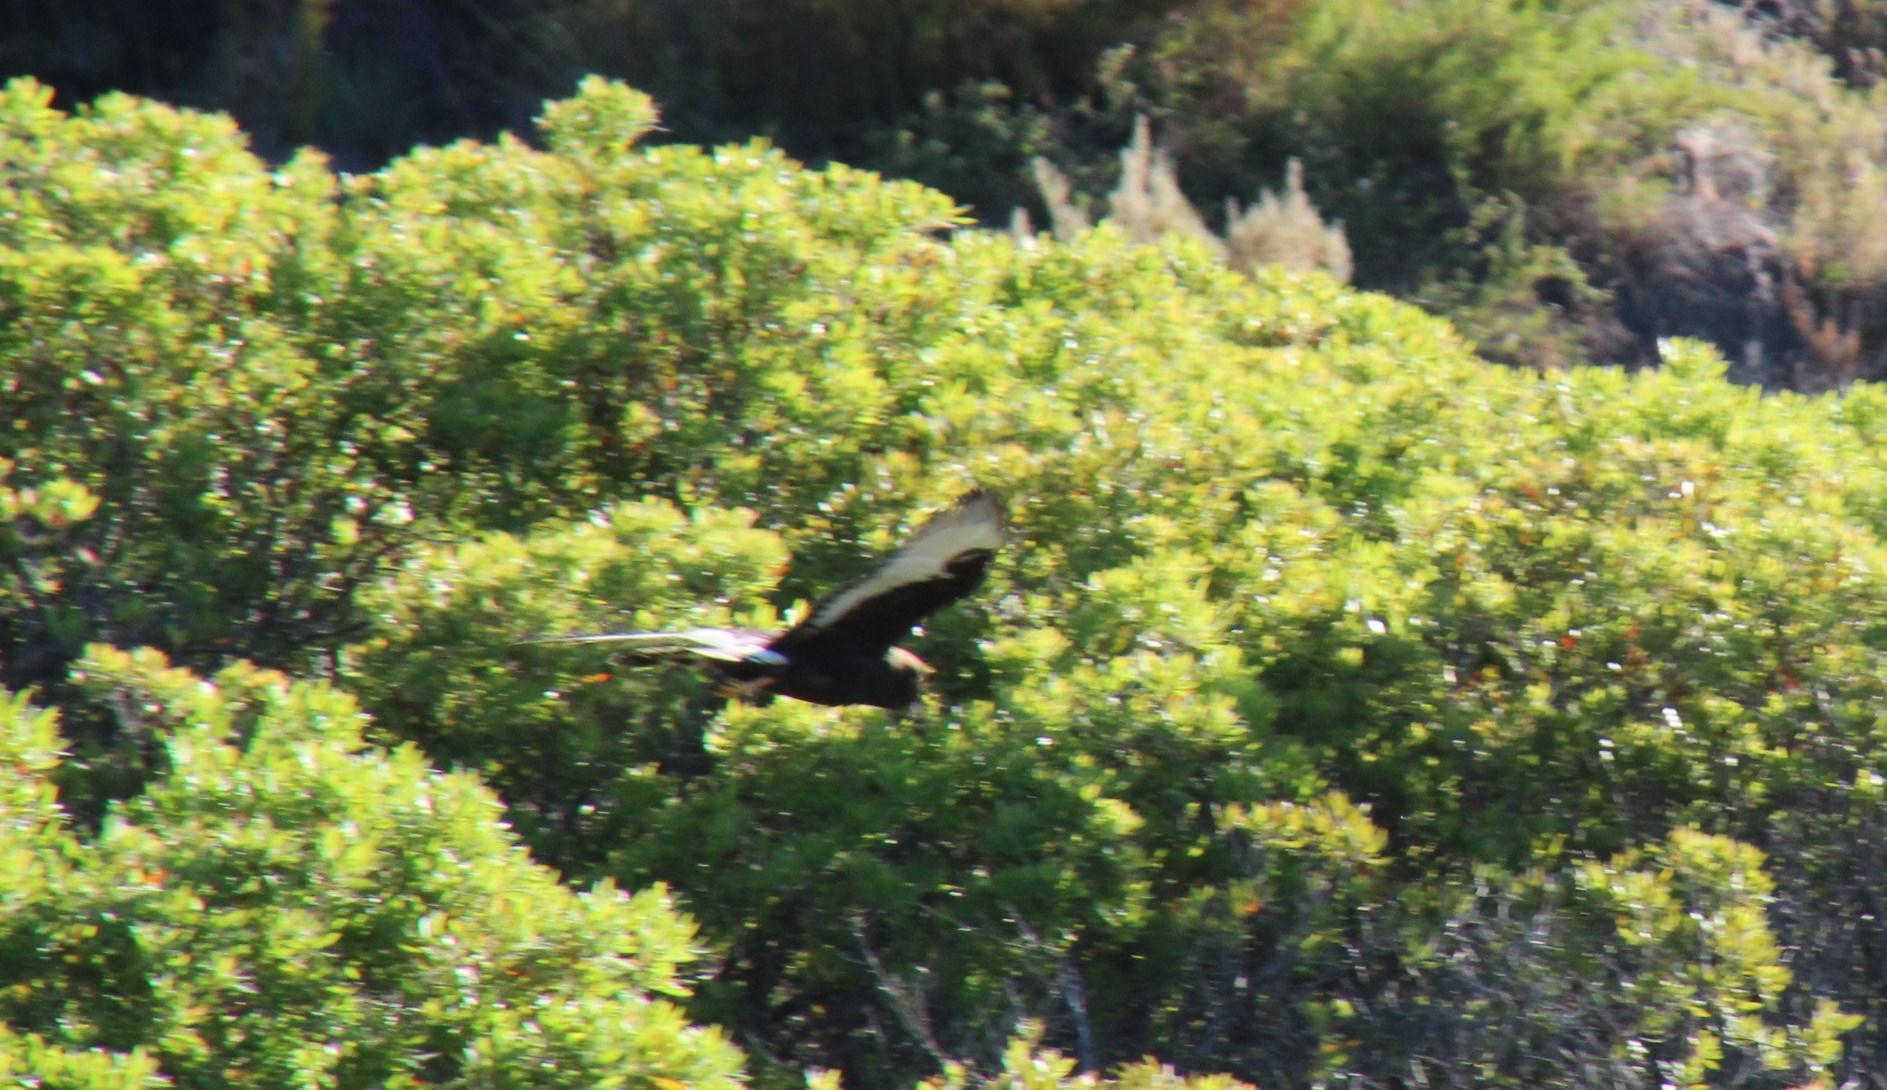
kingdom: Animalia
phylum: Chordata
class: Aves
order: Accipitriformes
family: Accipitridae
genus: Circus
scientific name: Circus maurus
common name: Black harrier
